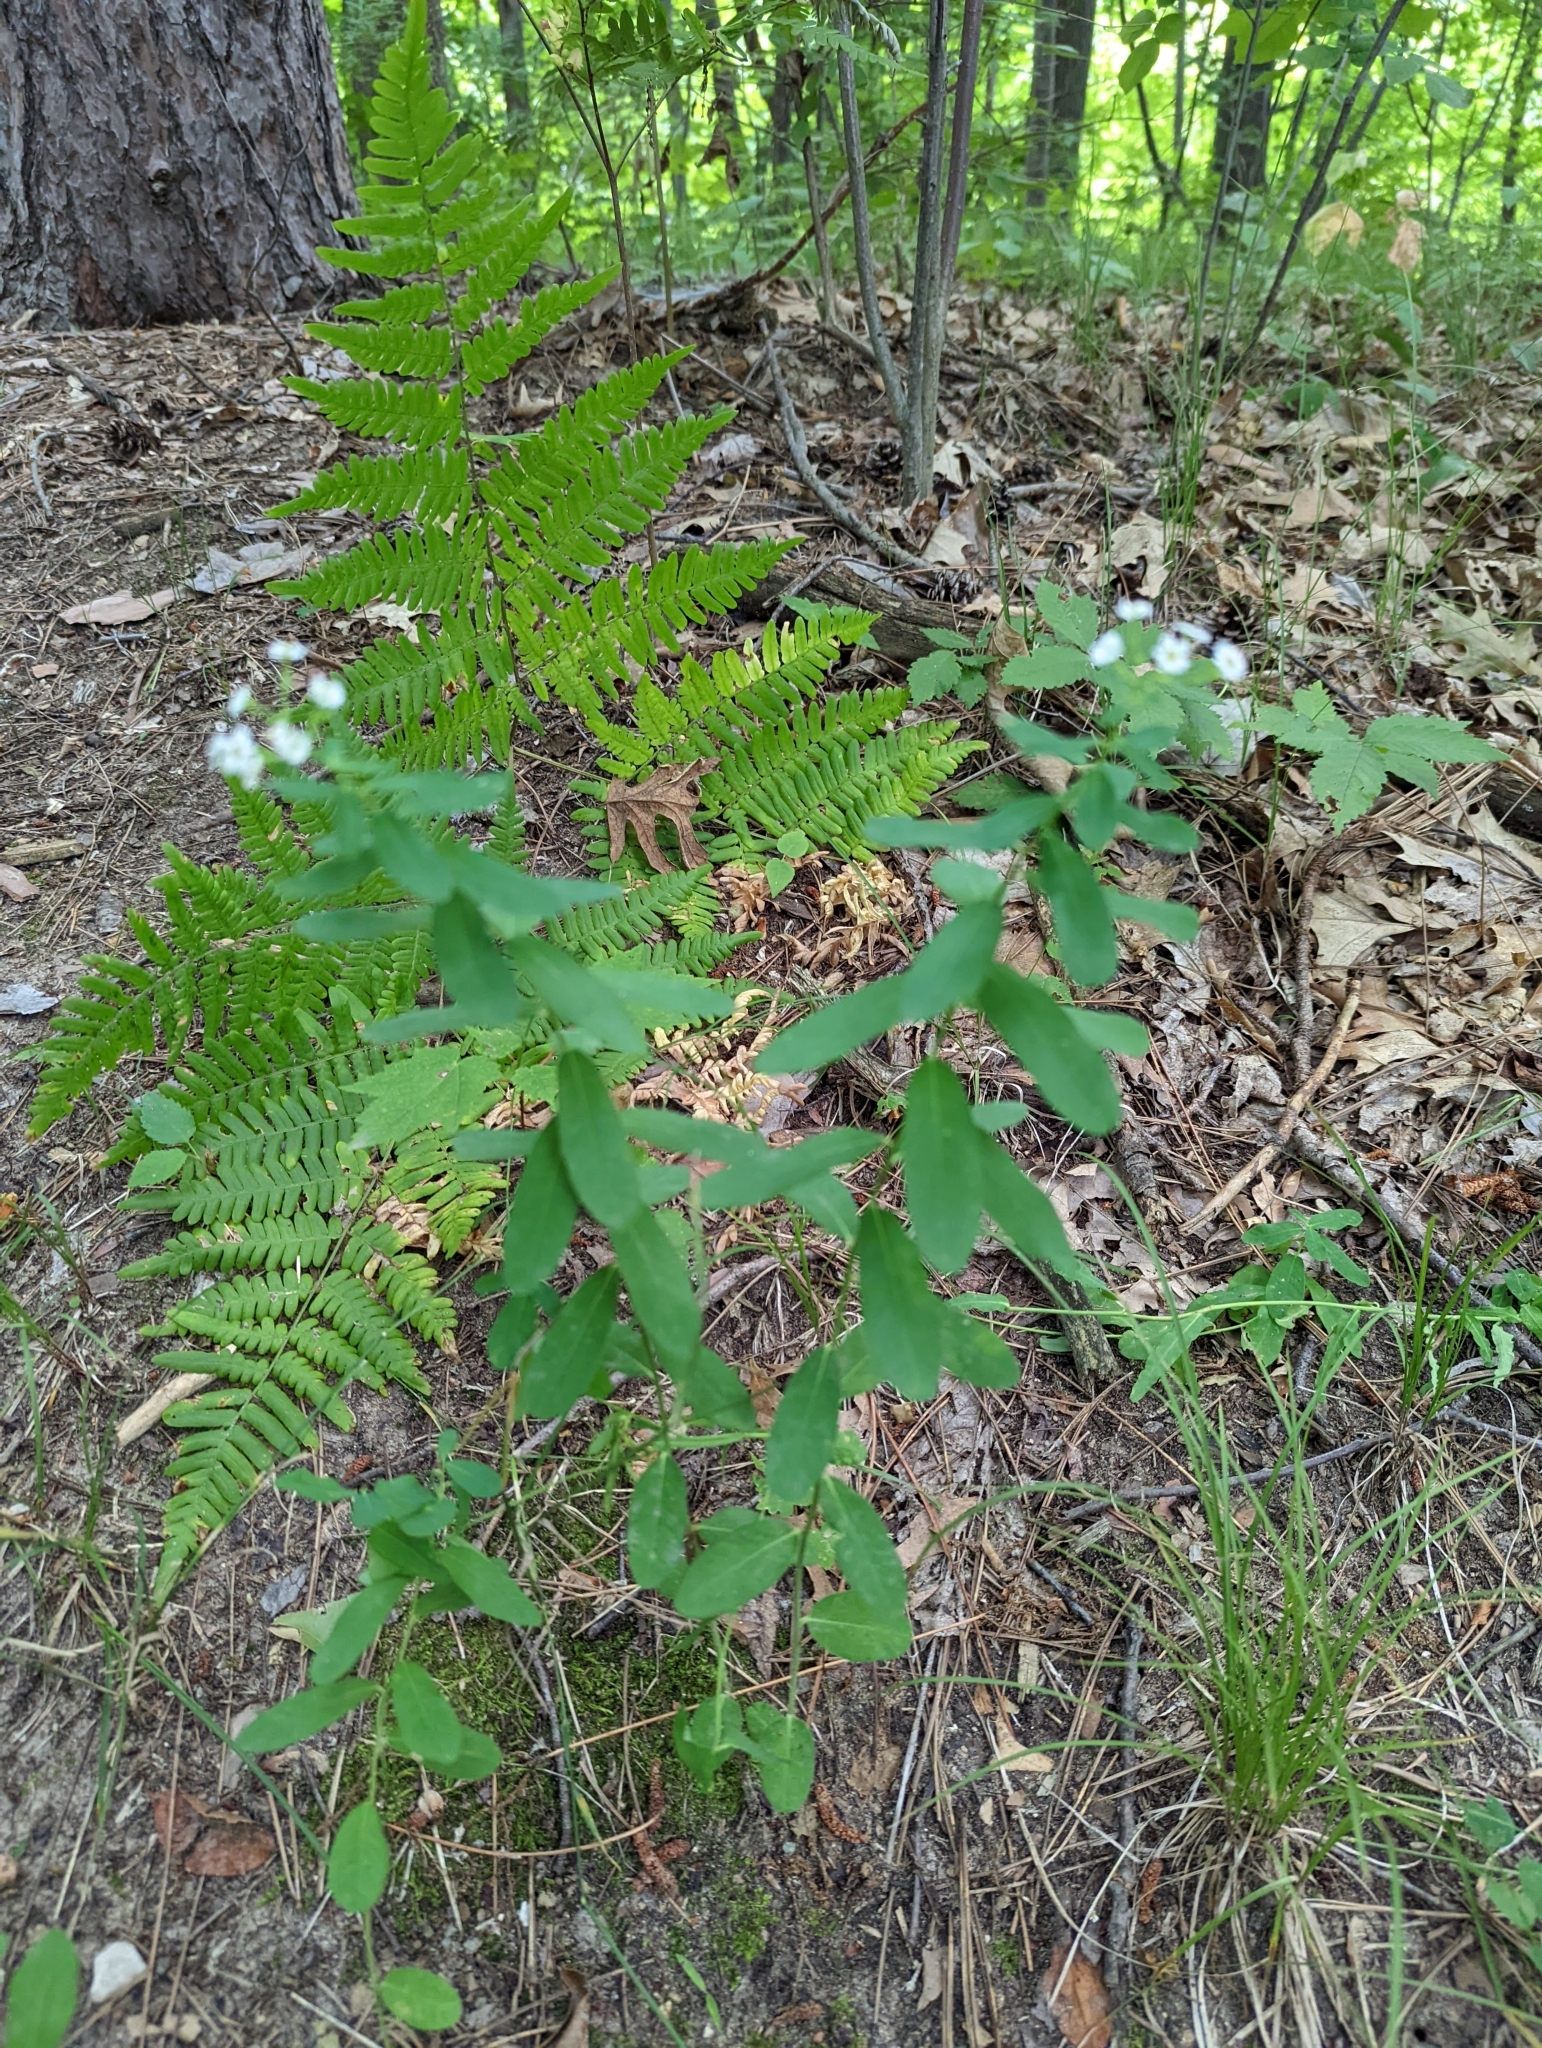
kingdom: Plantae
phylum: Tracheophyta
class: Magnoliopsida
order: Malpighiales
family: Euphorbiaceae
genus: Euphorbia
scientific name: Euphorbia corollata
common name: Flowering spurge
